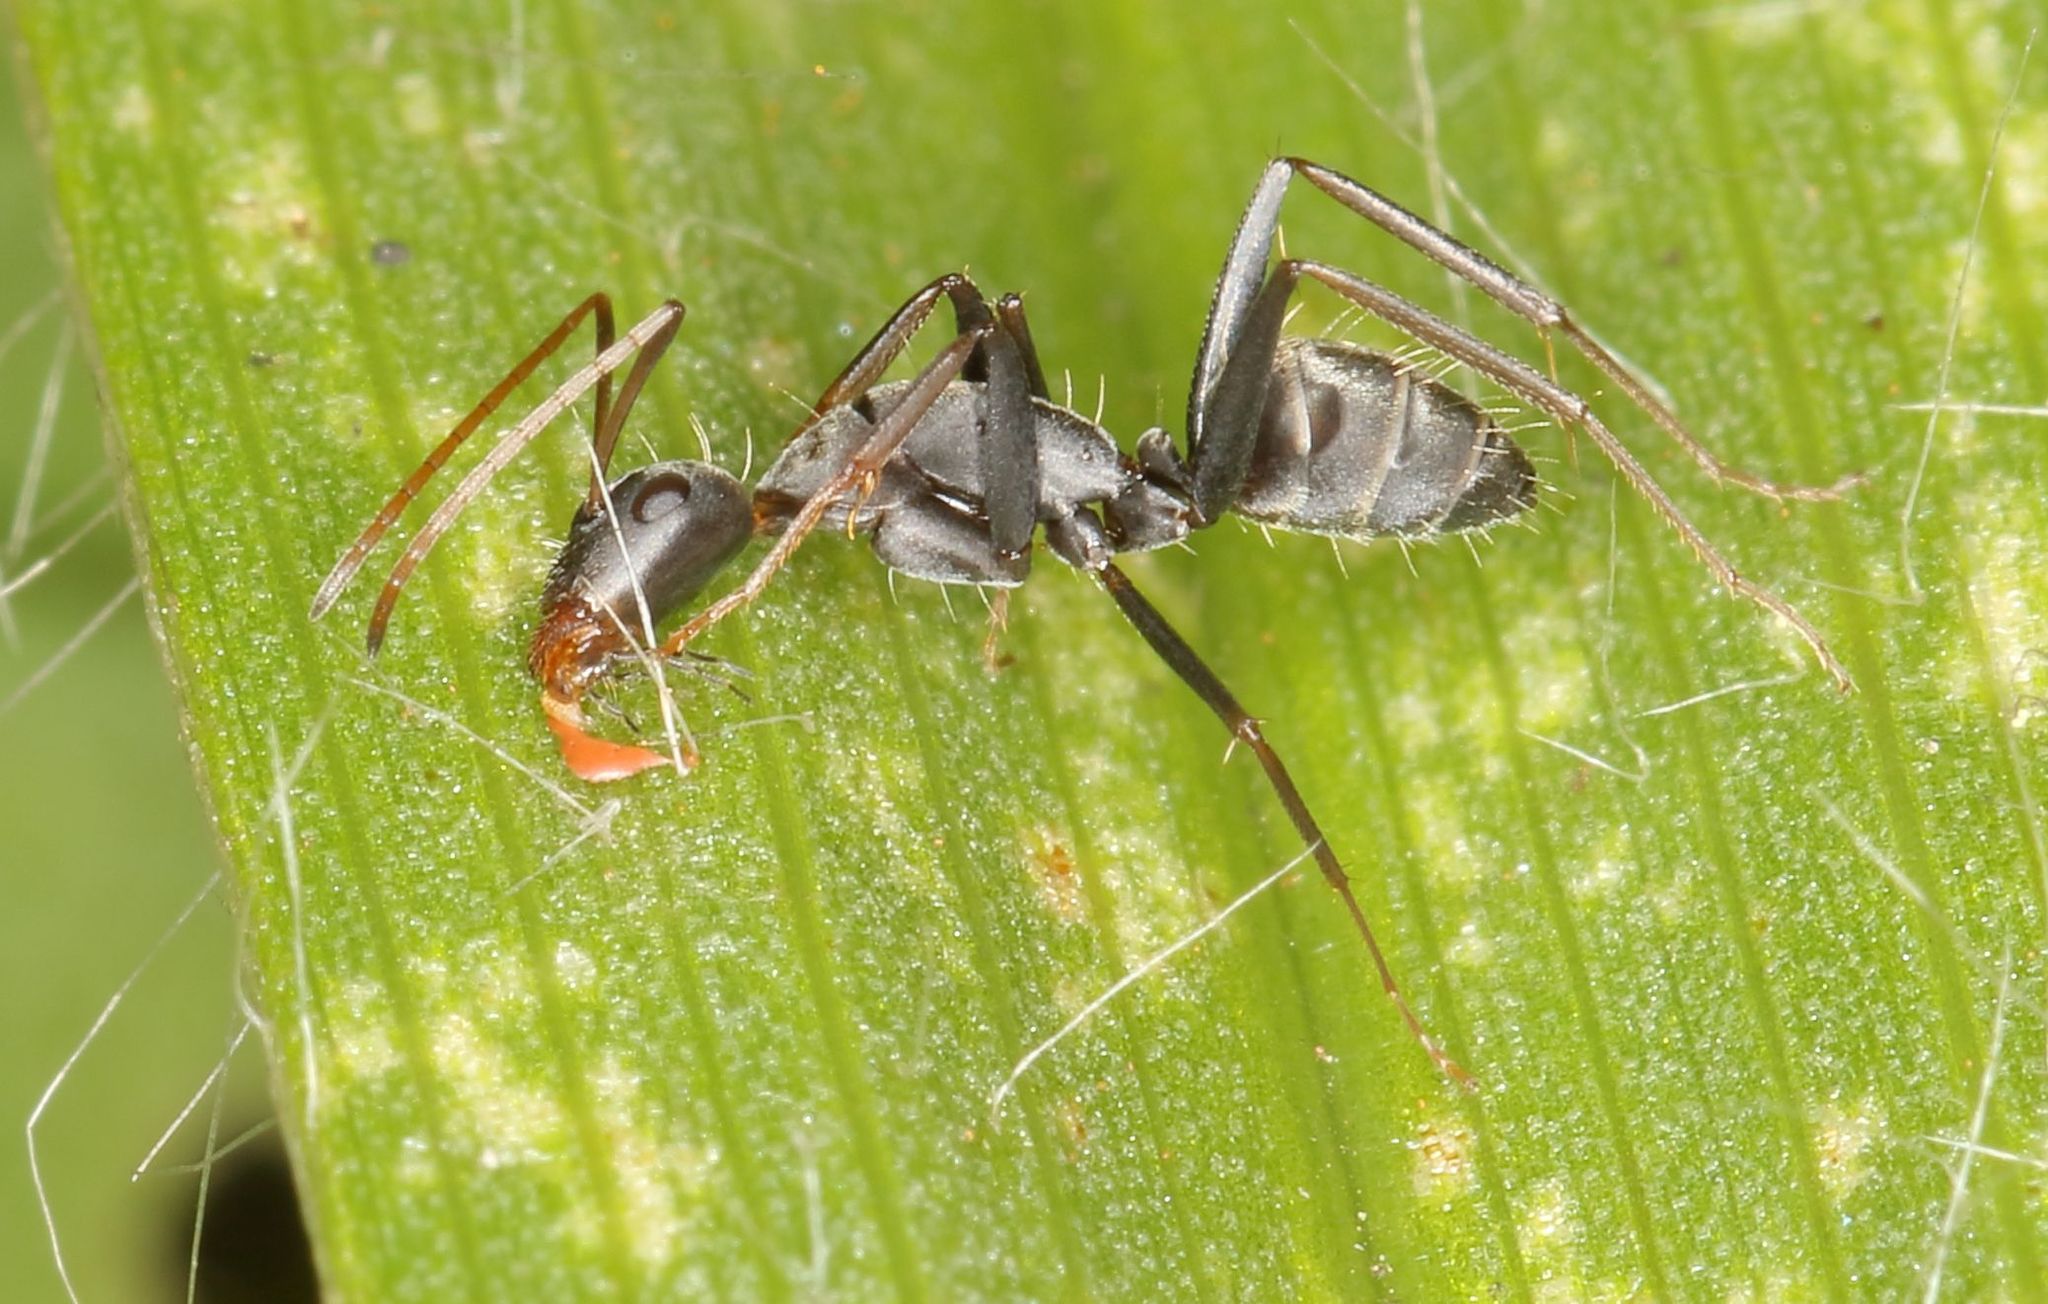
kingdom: Animalia
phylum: Arthropoda
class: Insecta
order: Hymenoptera
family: Formicidae
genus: Camponotus
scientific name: Camponotus cinctellus
